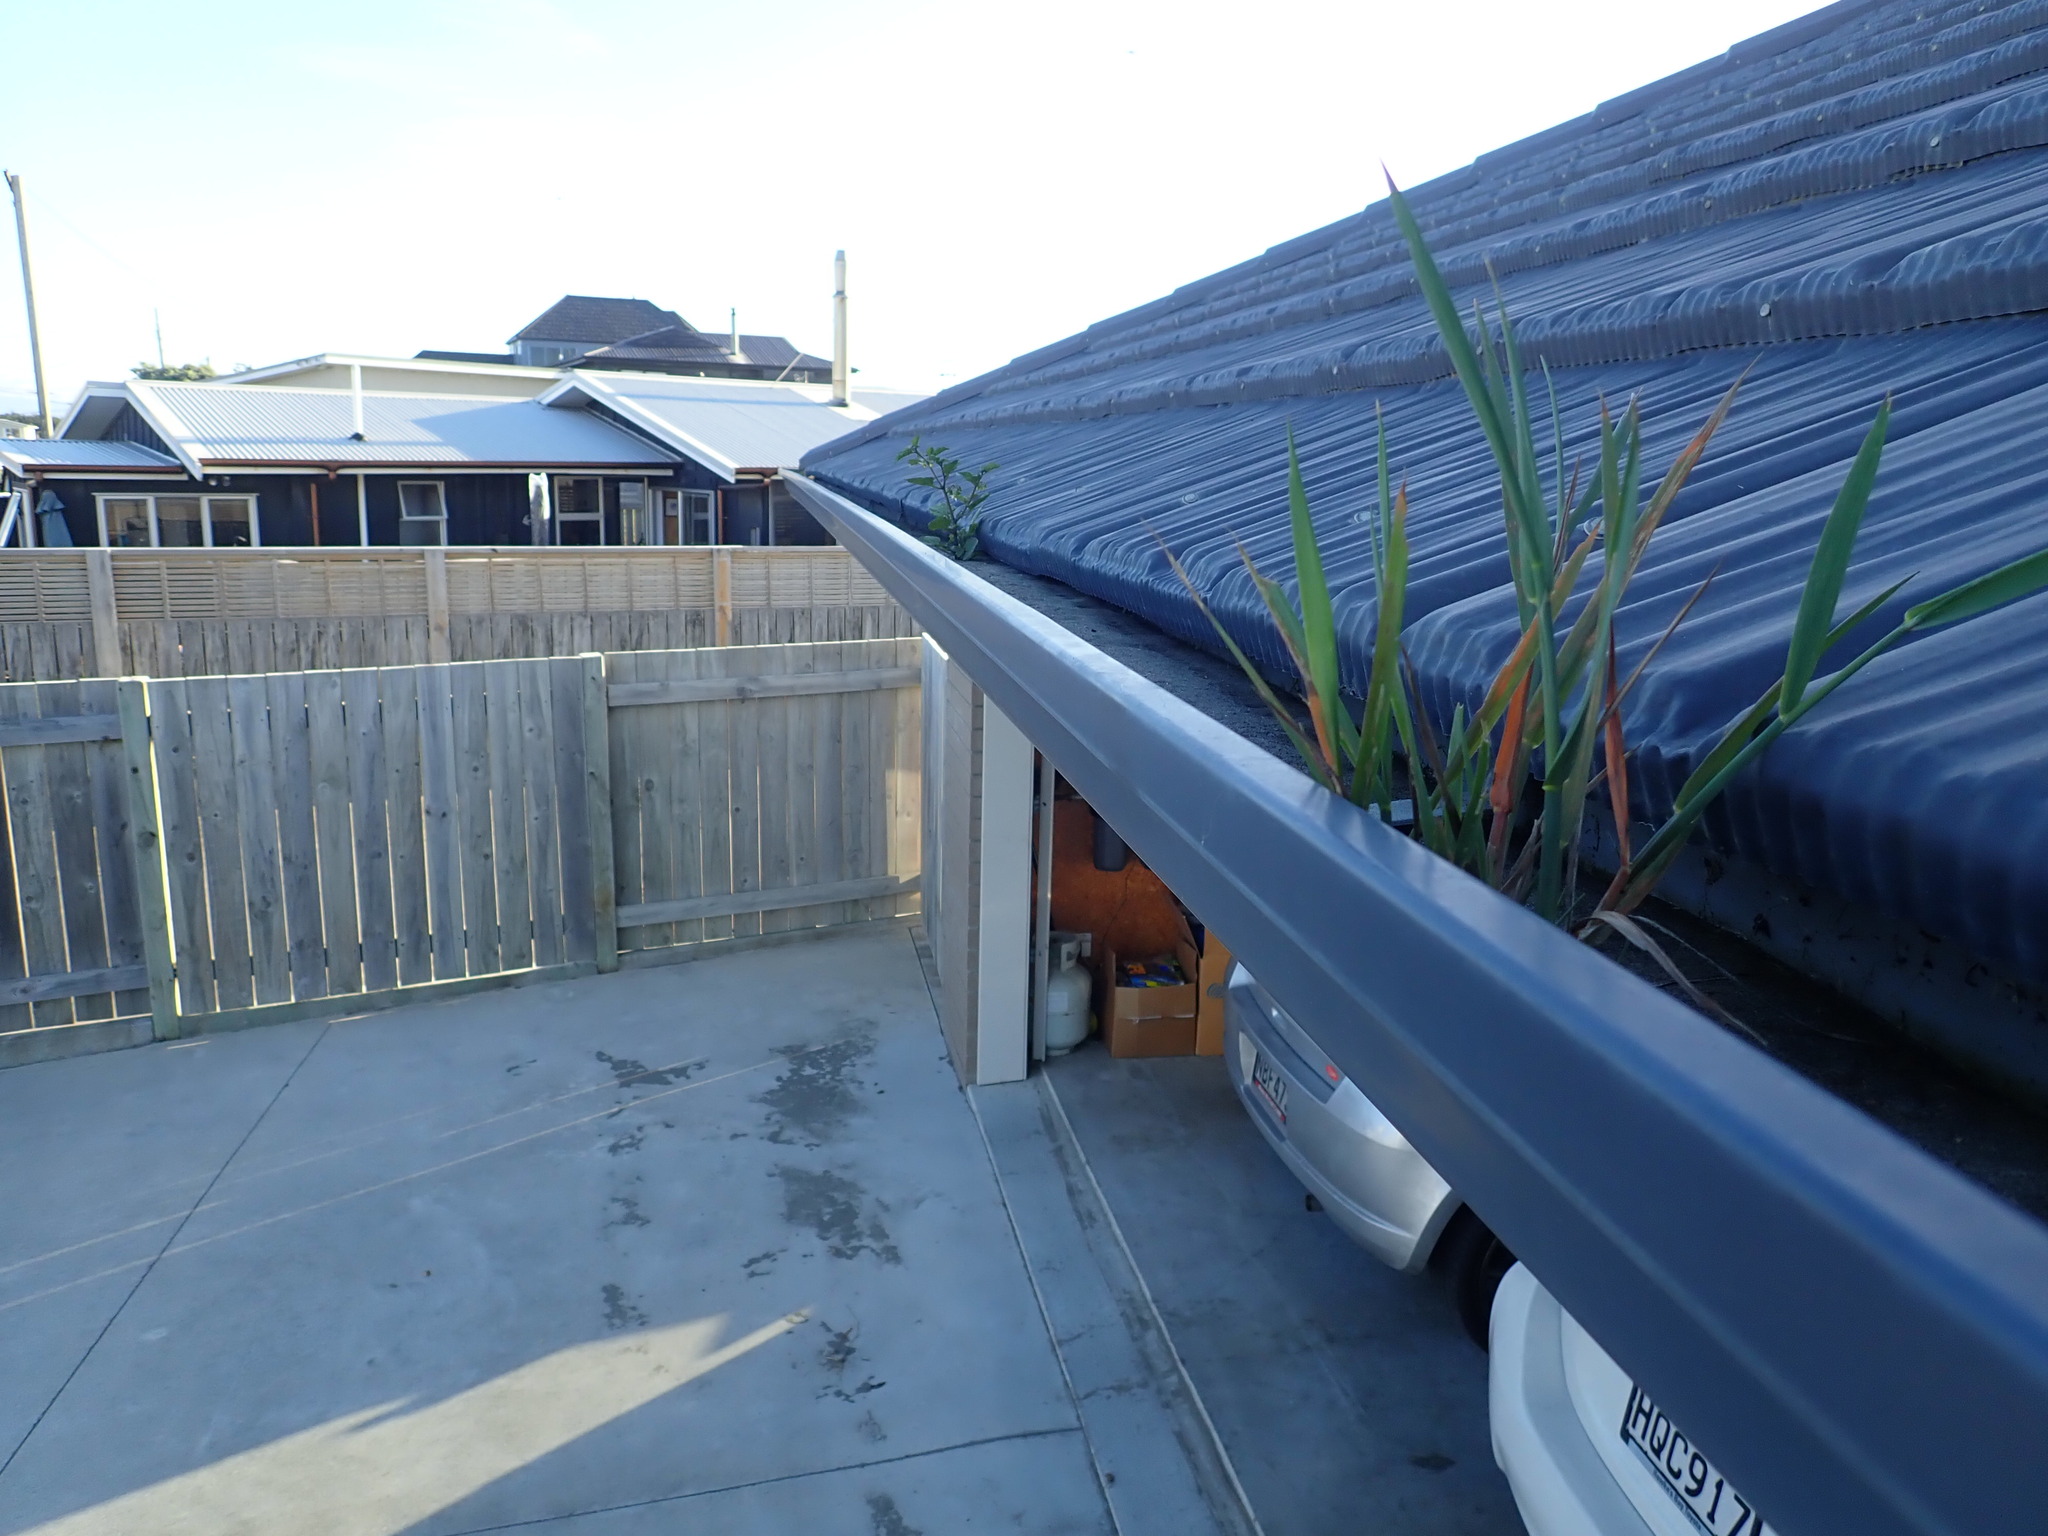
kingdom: Plantae
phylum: Tracheophyta
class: Magnoliopsida
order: Solanales
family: Solanaceae
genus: Solanum
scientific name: Solanum nigrum
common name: Black nightshade
